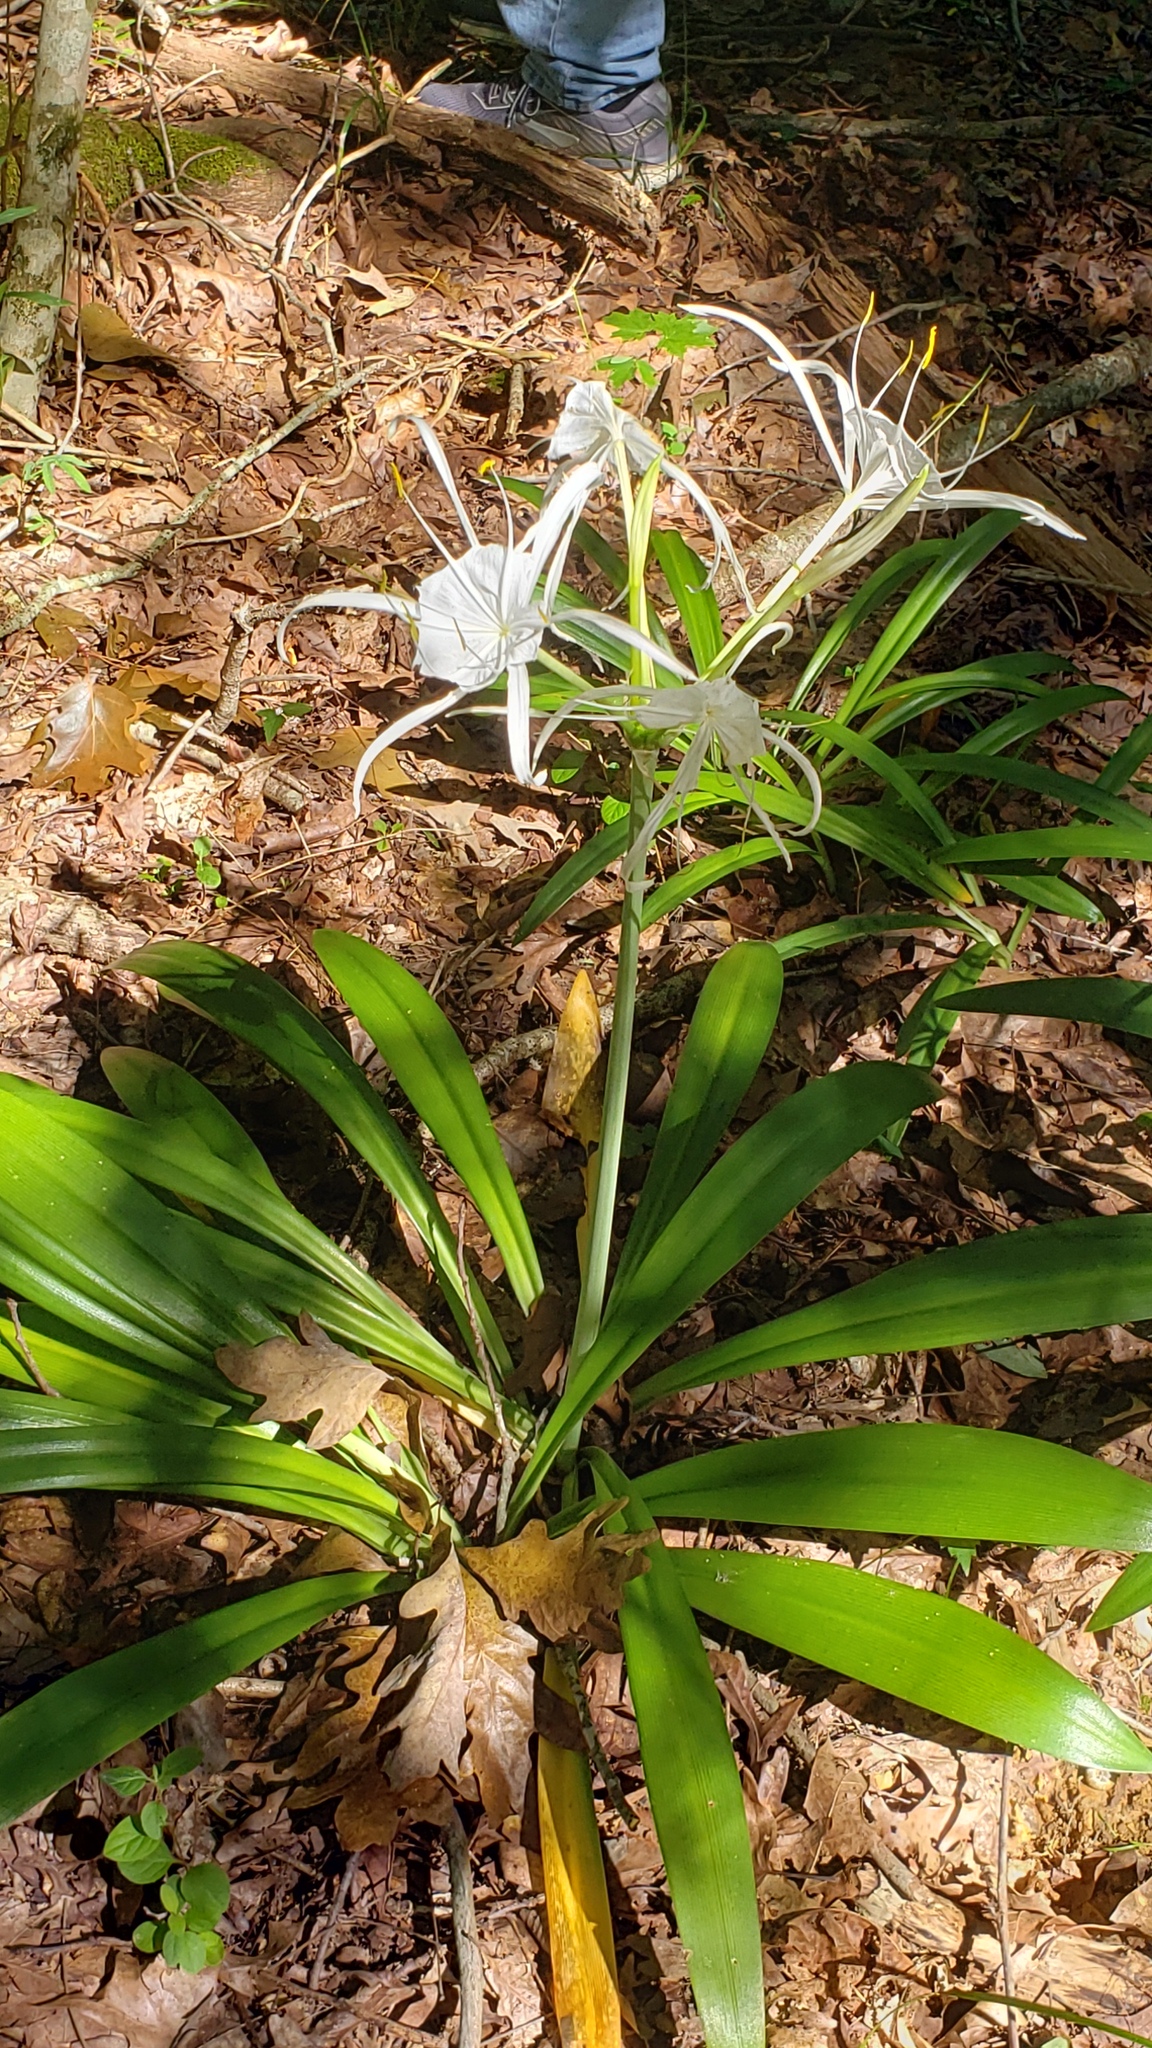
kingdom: Plantae
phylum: Tracheophyta
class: Liliopsida
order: Asparagales
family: Amaryllidaceae
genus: Hymenocallis
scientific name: Hymenocallis occidentalis
